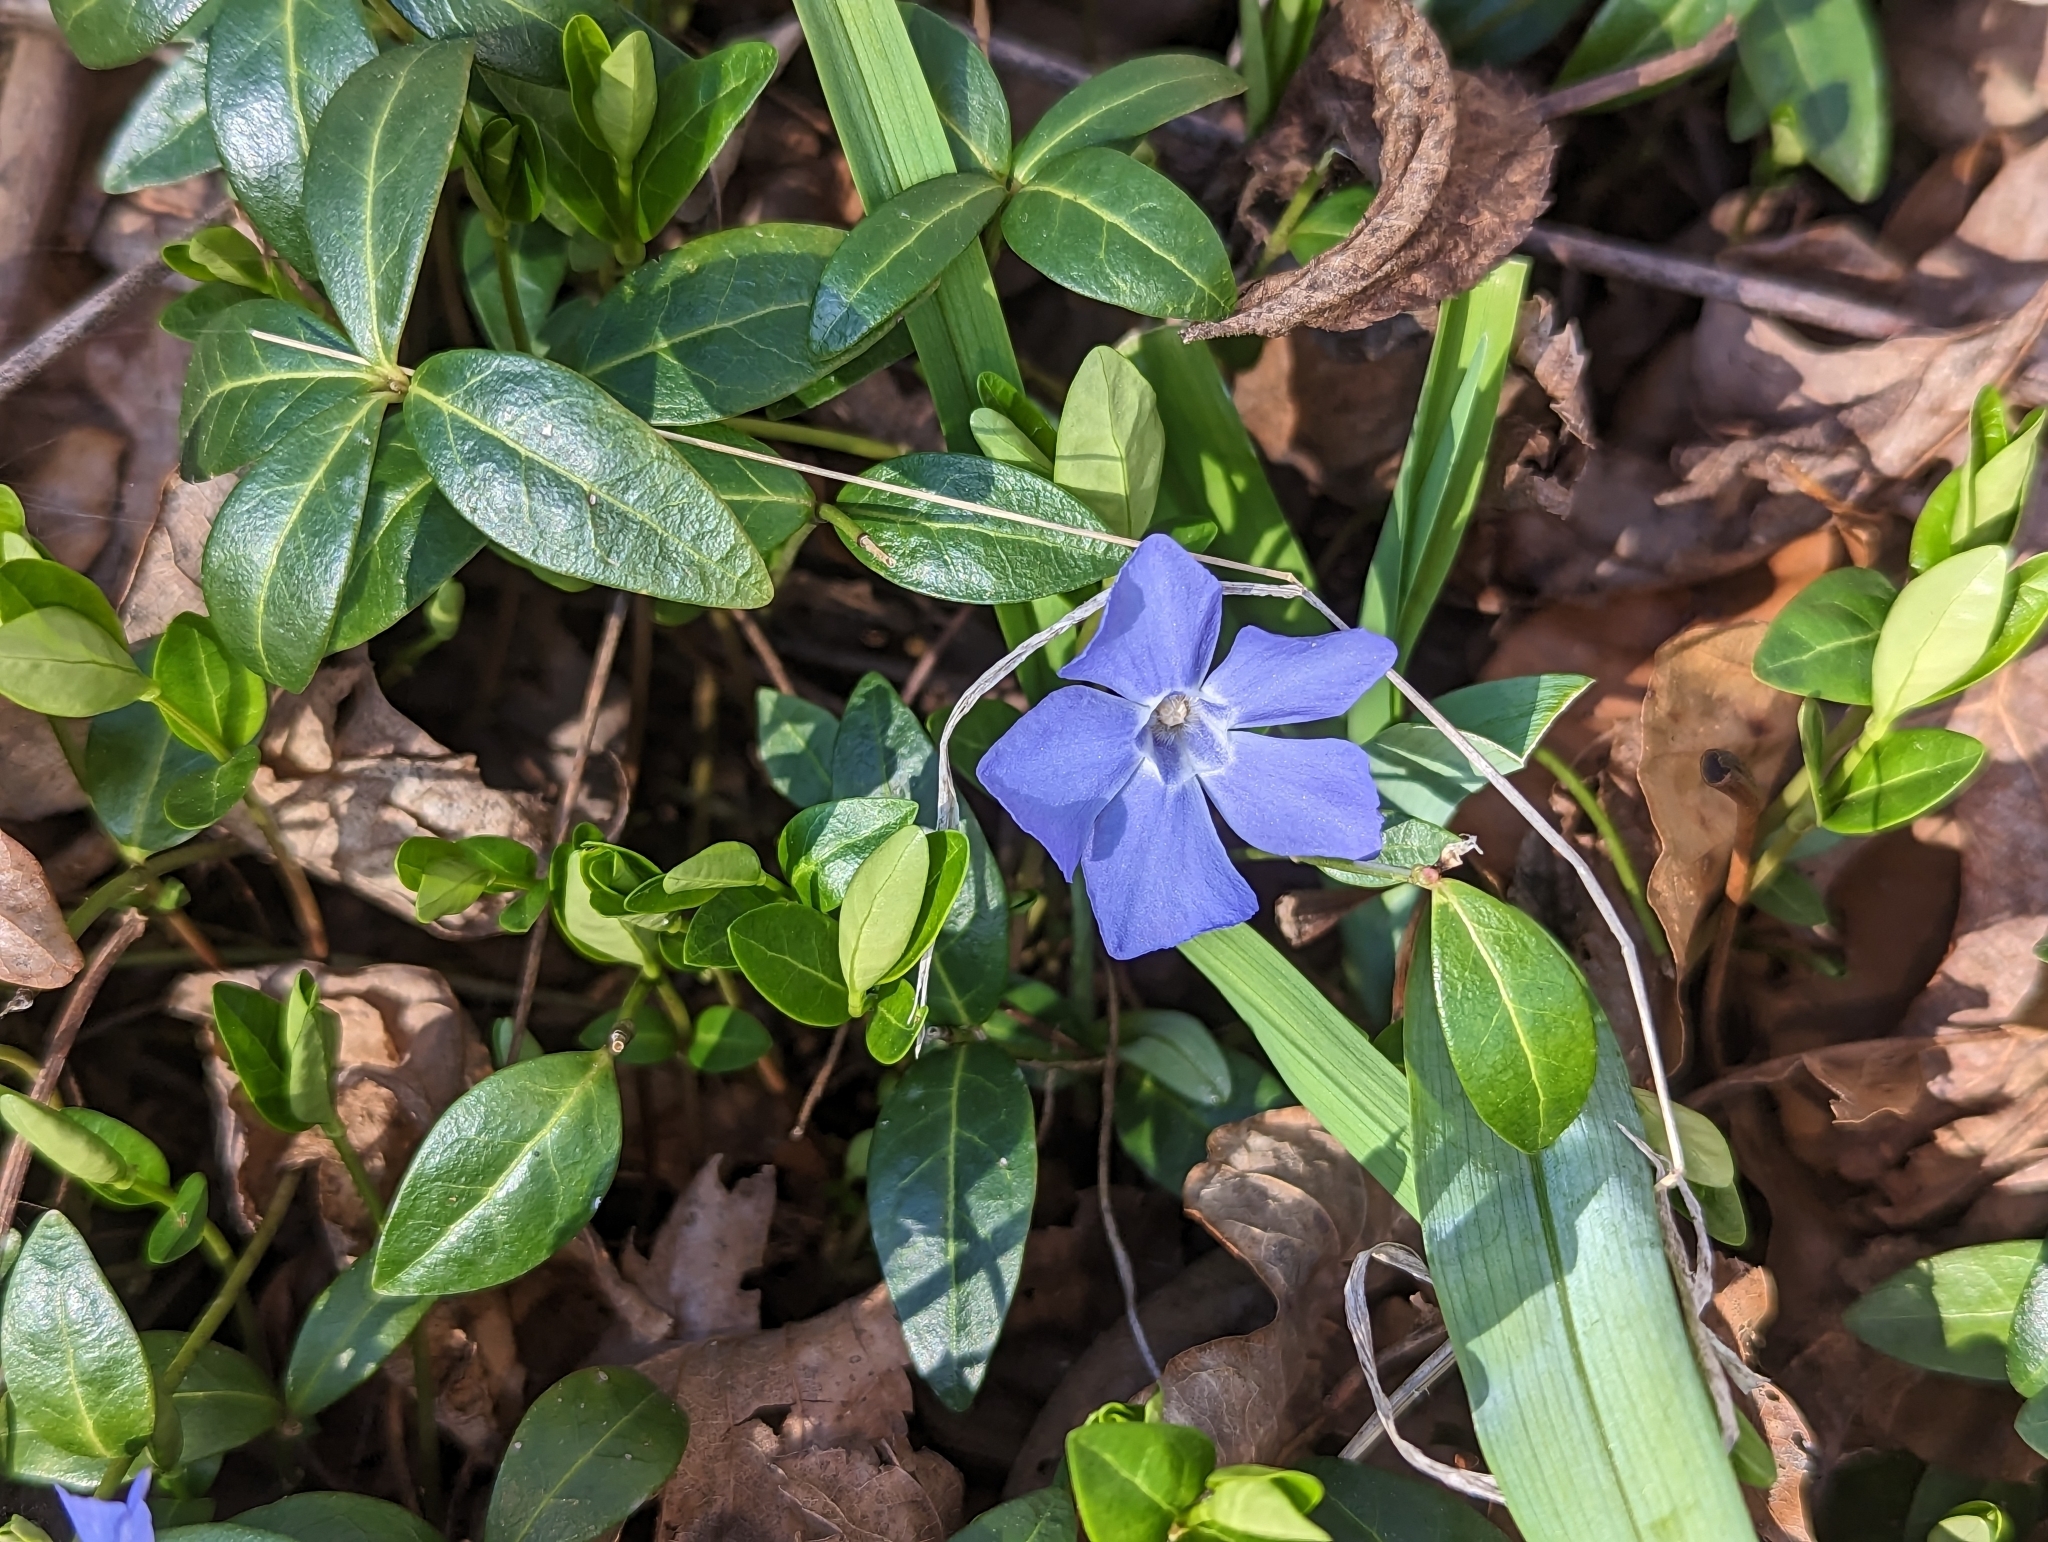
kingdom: Plantae
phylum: Tracheophyta
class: Magnoliopsida
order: Gentianales
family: Apocynaceae
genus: Vinca
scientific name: Vinca minor
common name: Lesser periwinkle
